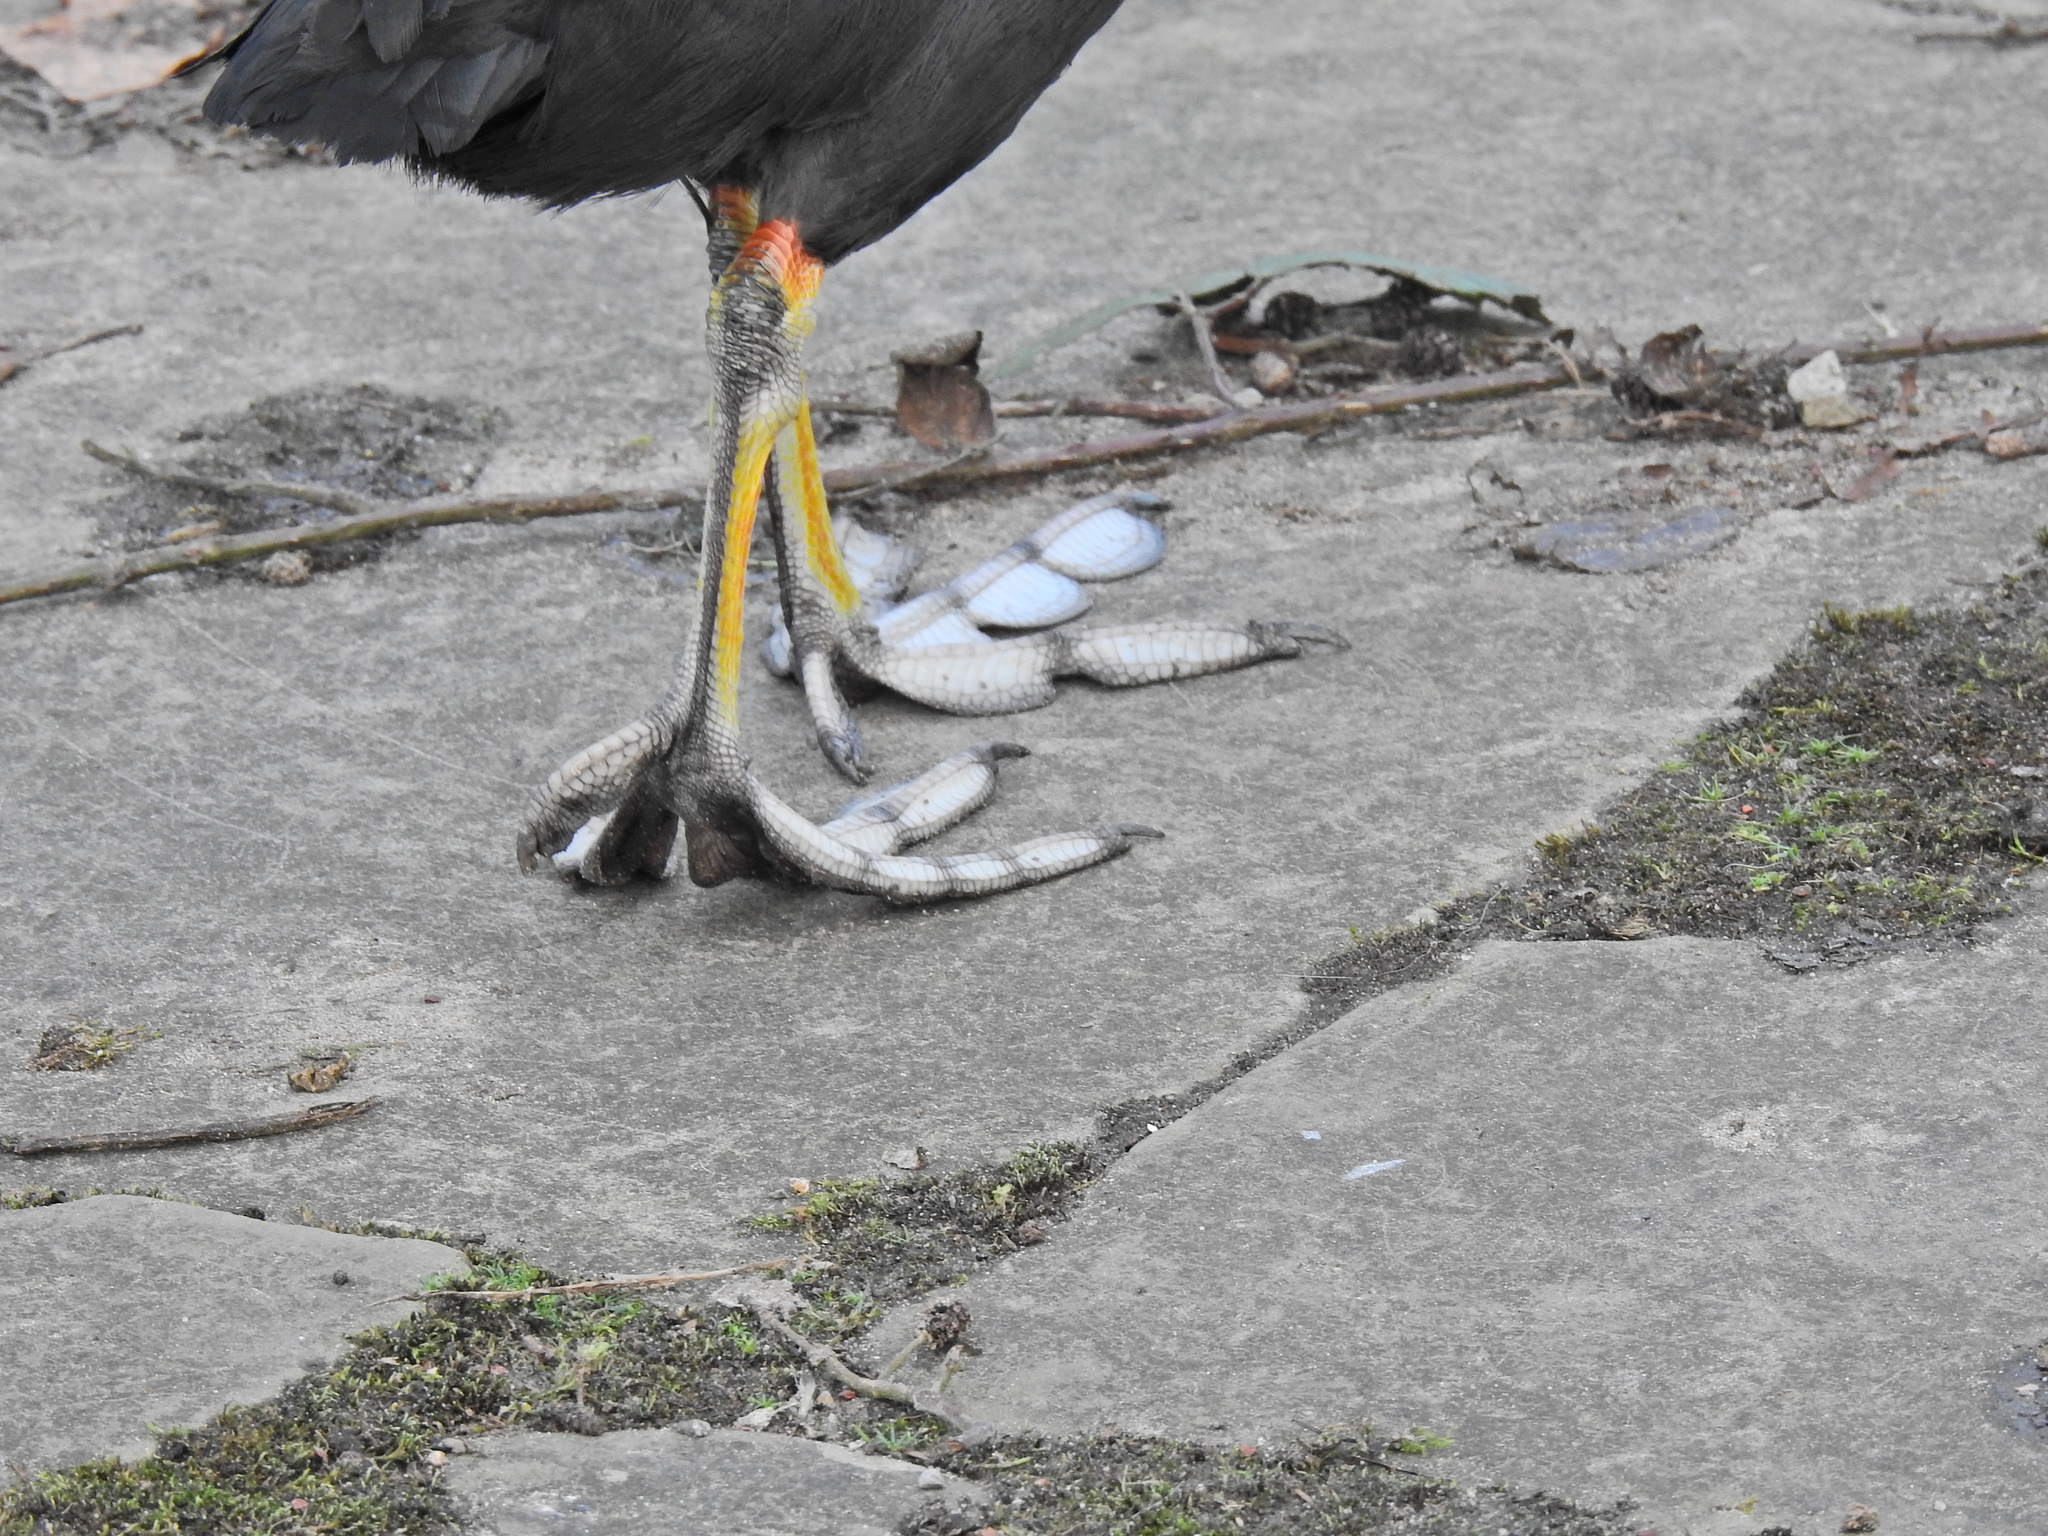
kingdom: Animalia
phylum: Chordata
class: Aves
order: Gruiformes
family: Rallidae
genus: Fulica
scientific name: Fulica atra
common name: Eurasian coot
